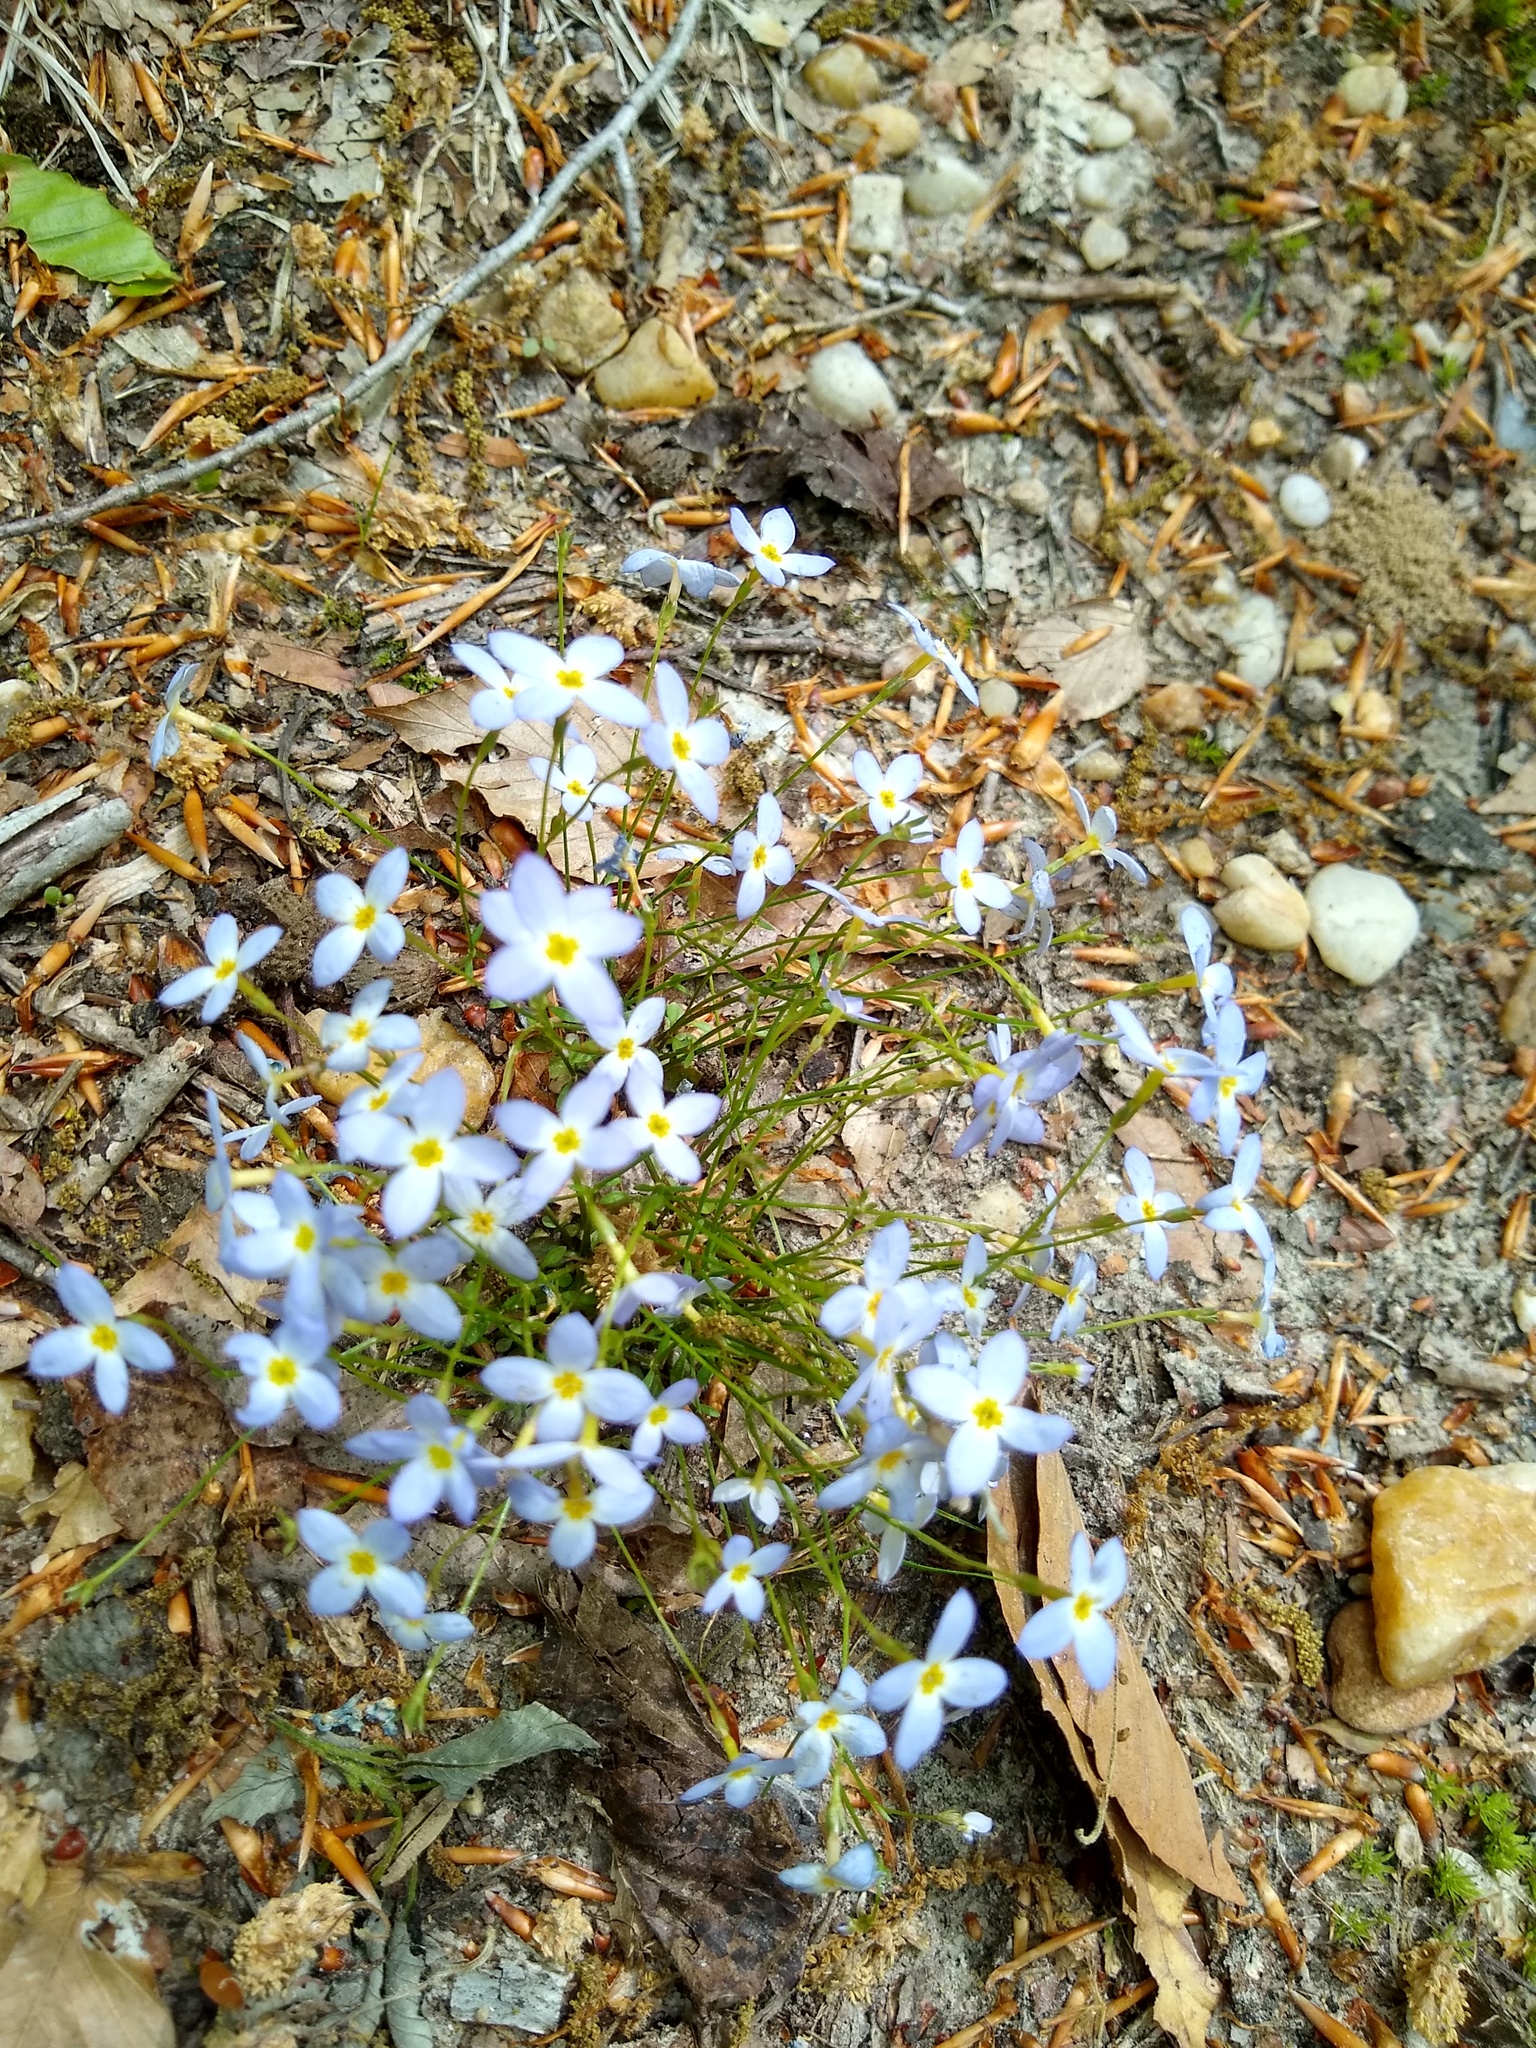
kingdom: Plantae
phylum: Tracheophyta
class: Magnoliopsida
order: Gentianales
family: Rubiaceae
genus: Houstonia
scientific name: Houstonia caerulea
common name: Bluets
